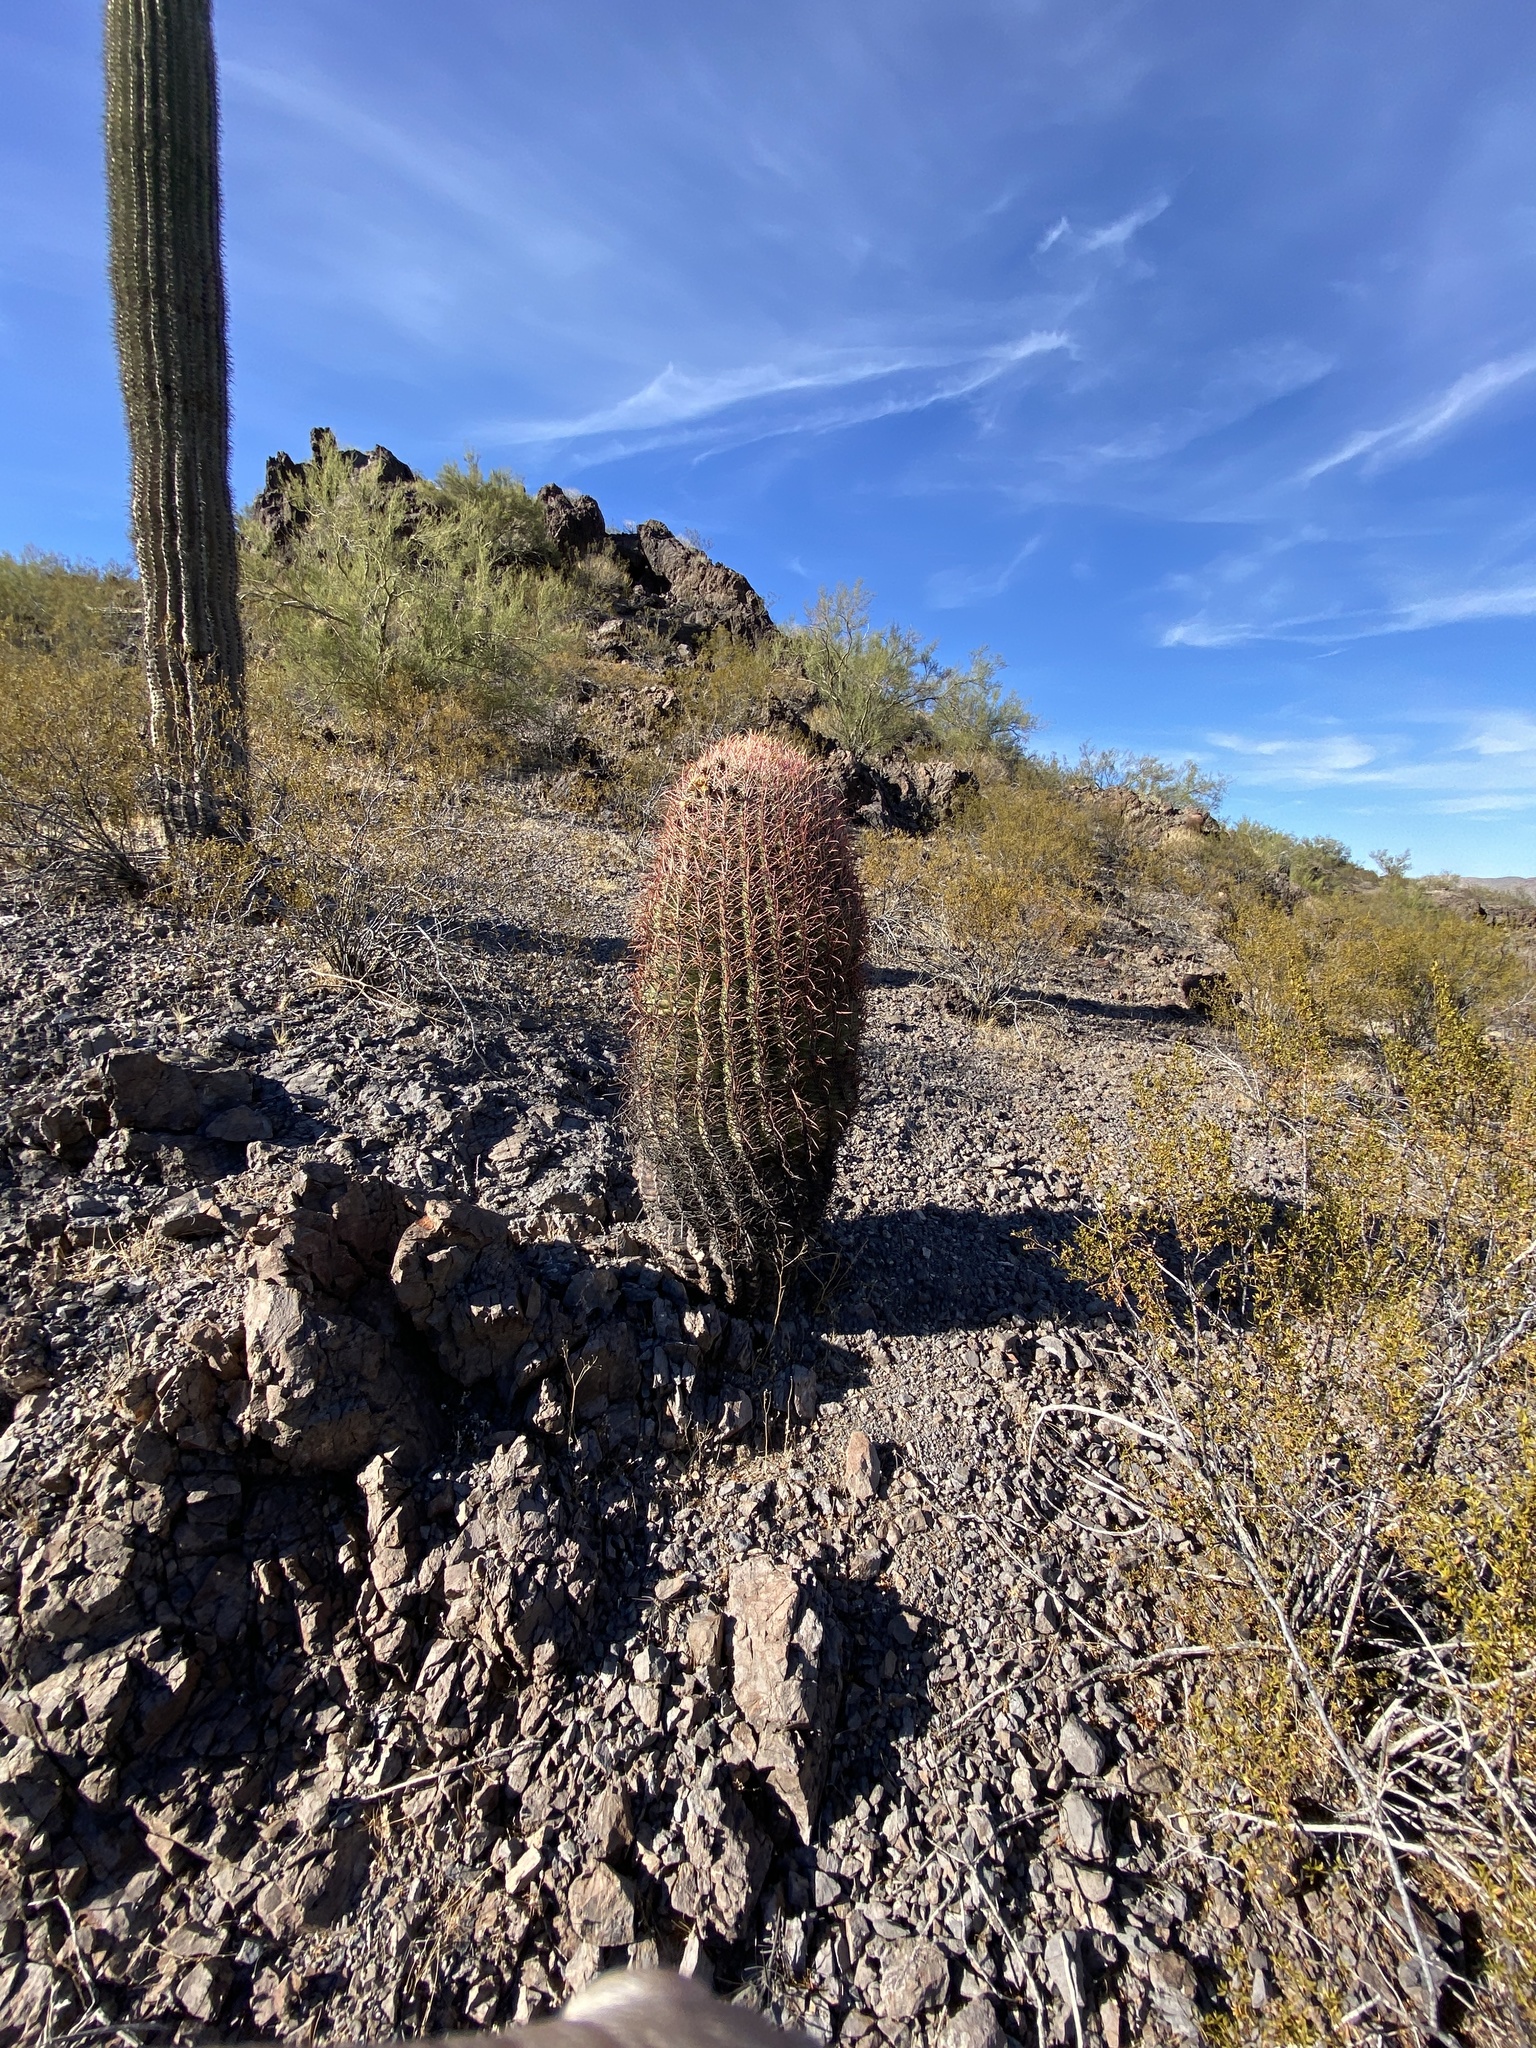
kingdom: Plantae
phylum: Tracheophyta
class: Magnoliopsida
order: Caryophyllales
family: Cactaceae
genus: Ferocactus
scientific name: Ferocactus cylindraceus
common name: California barrel cactus
